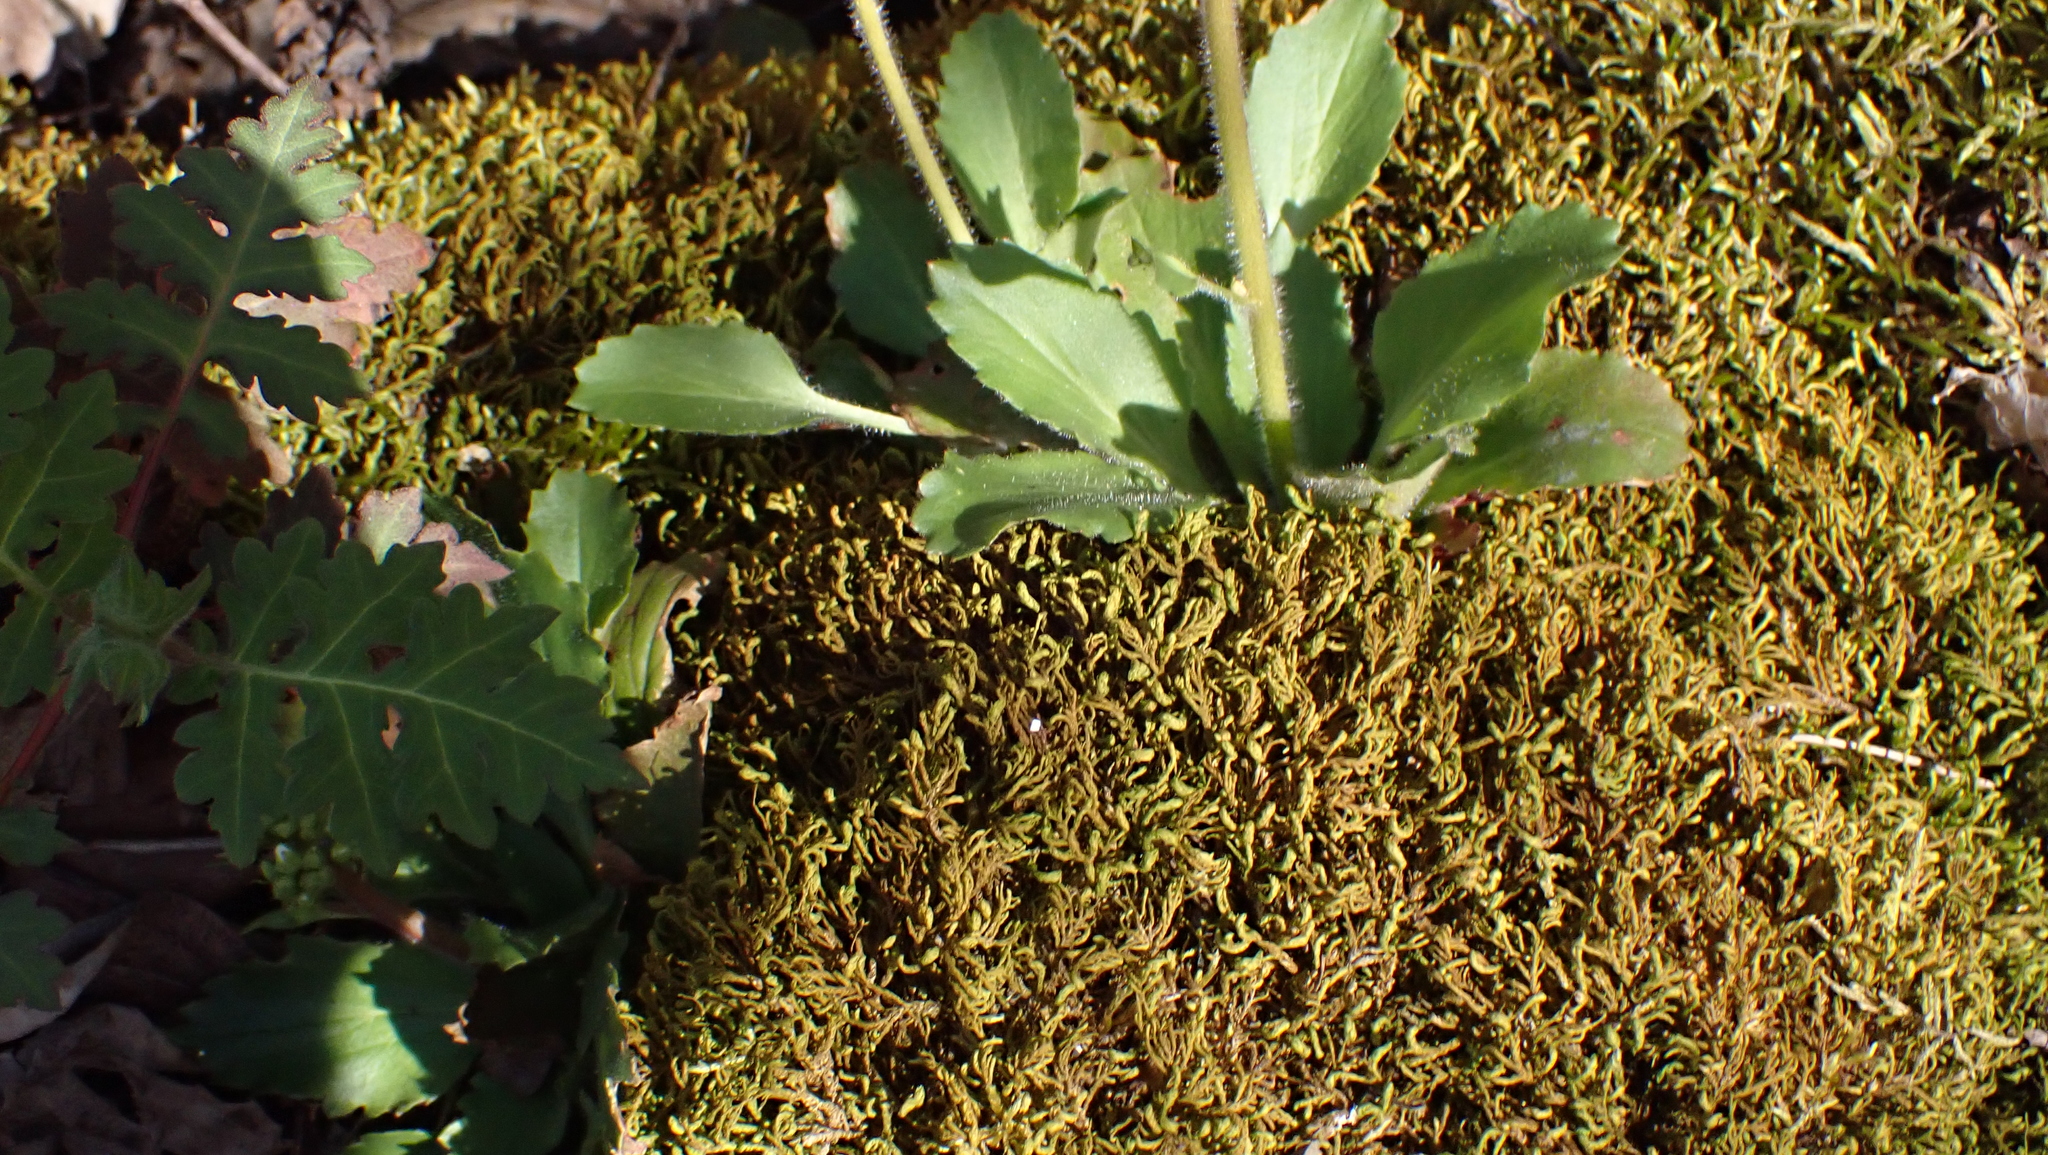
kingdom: Plantae
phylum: Tracheophyta
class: Magnoliopsida
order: Saxifragales
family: Saxifragaceae
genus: Micranthes
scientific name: Micranthes virginiensis
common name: Early saxifrage
